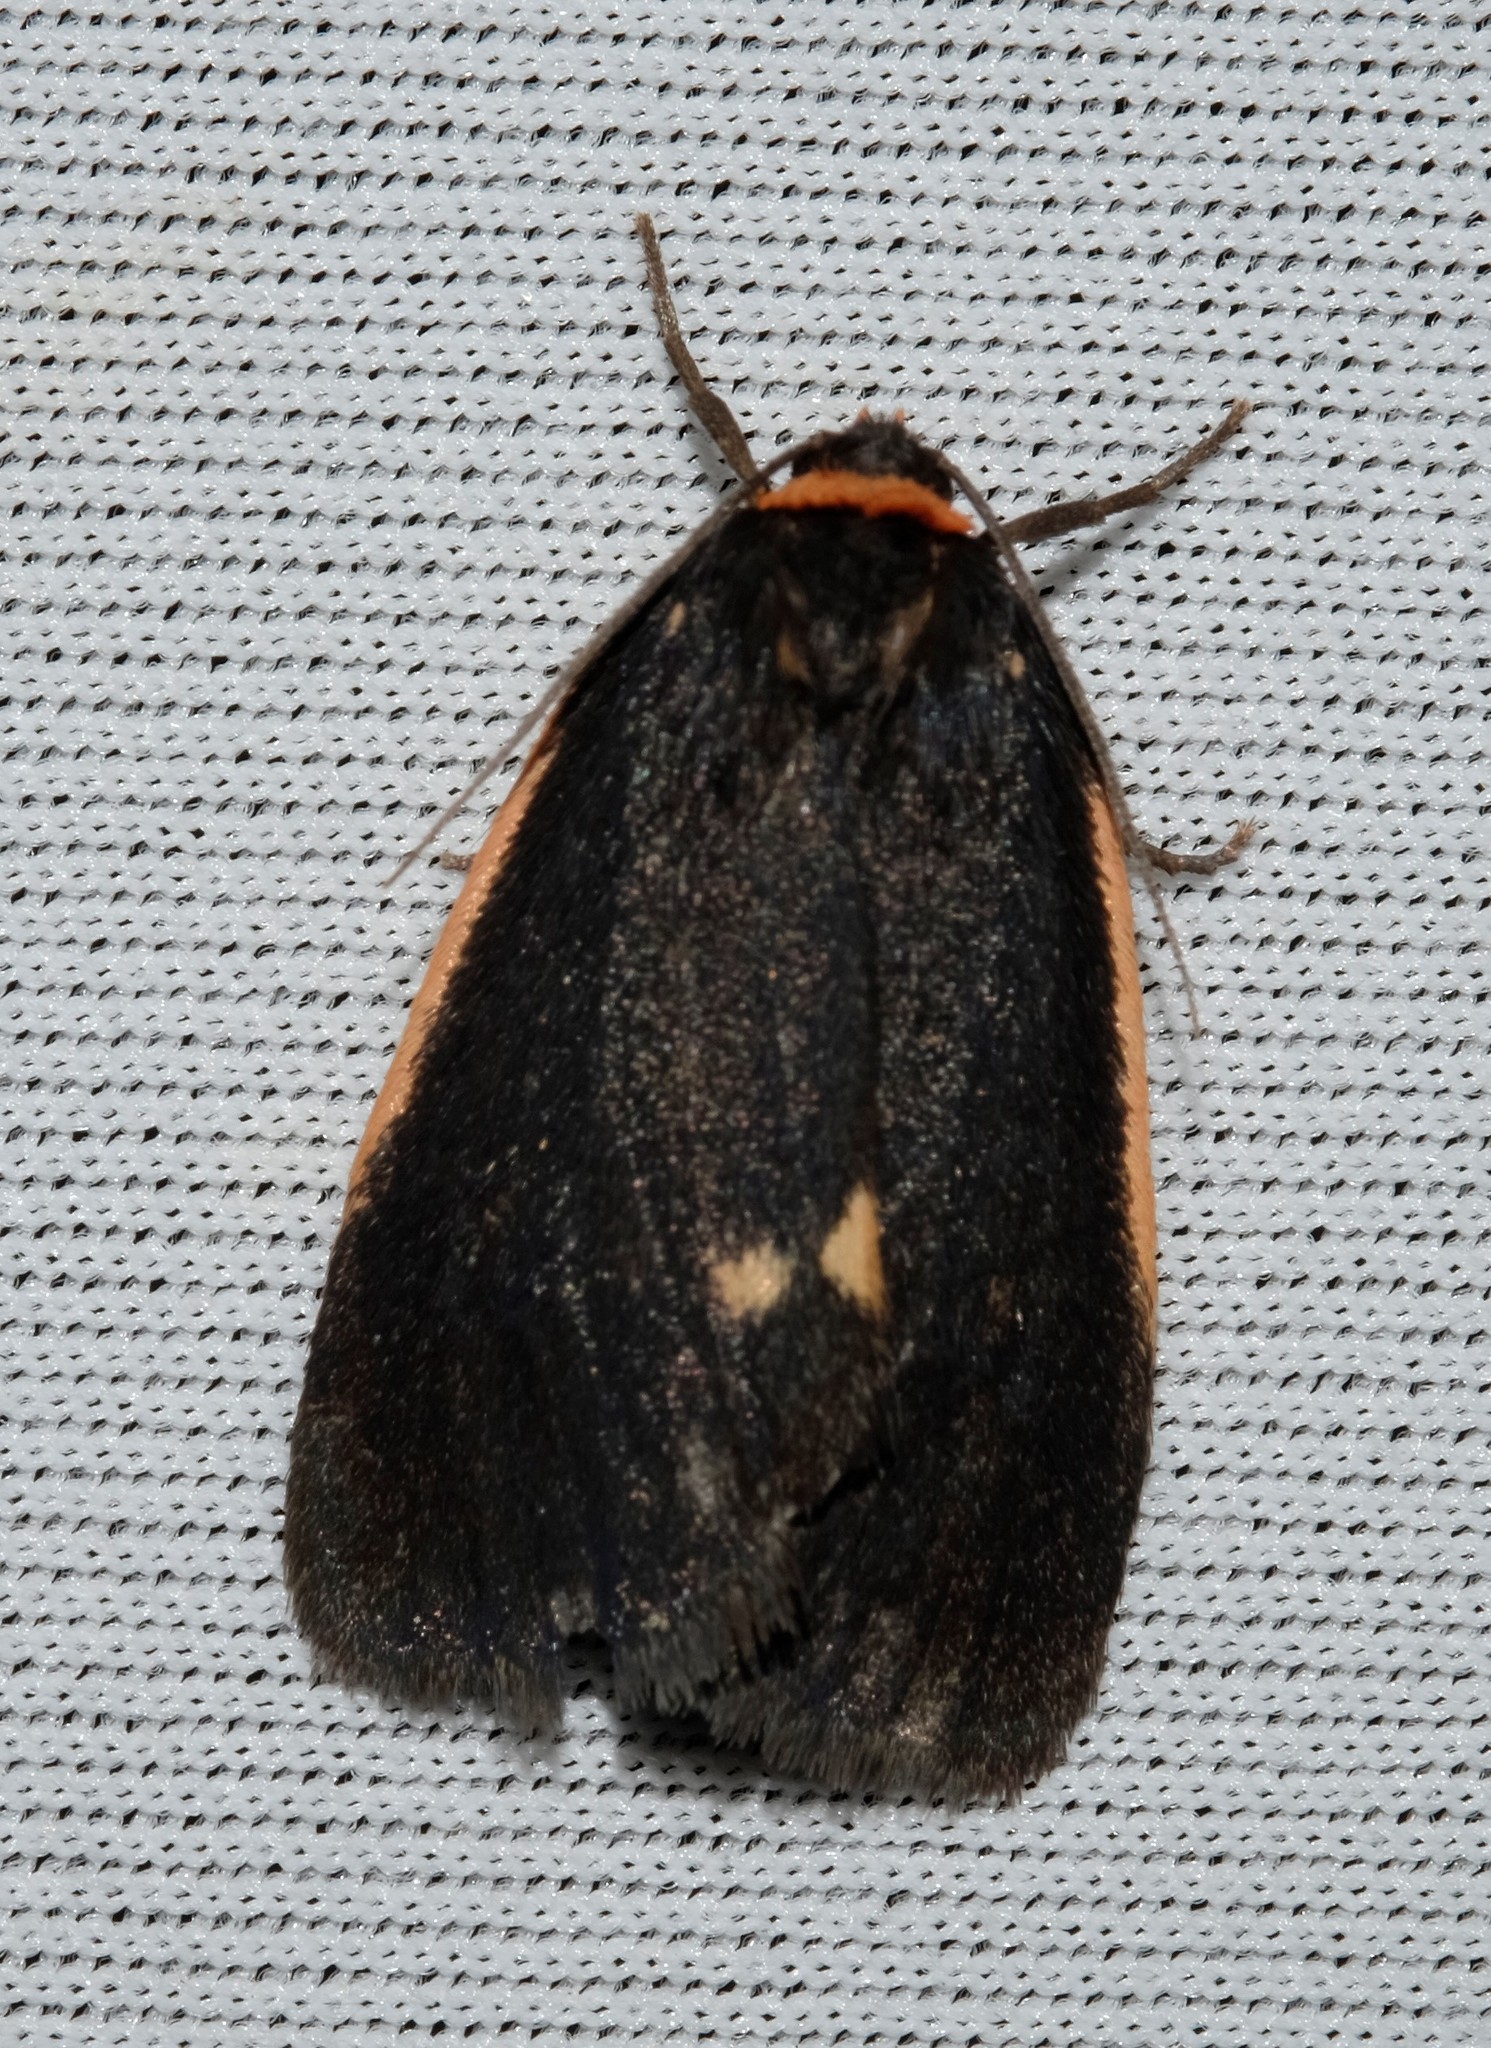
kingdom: Animalia
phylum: Arthropoda
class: Insecta
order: Lepidoptera
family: Erebidae
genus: Castulo
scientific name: Castulo doubledayi
